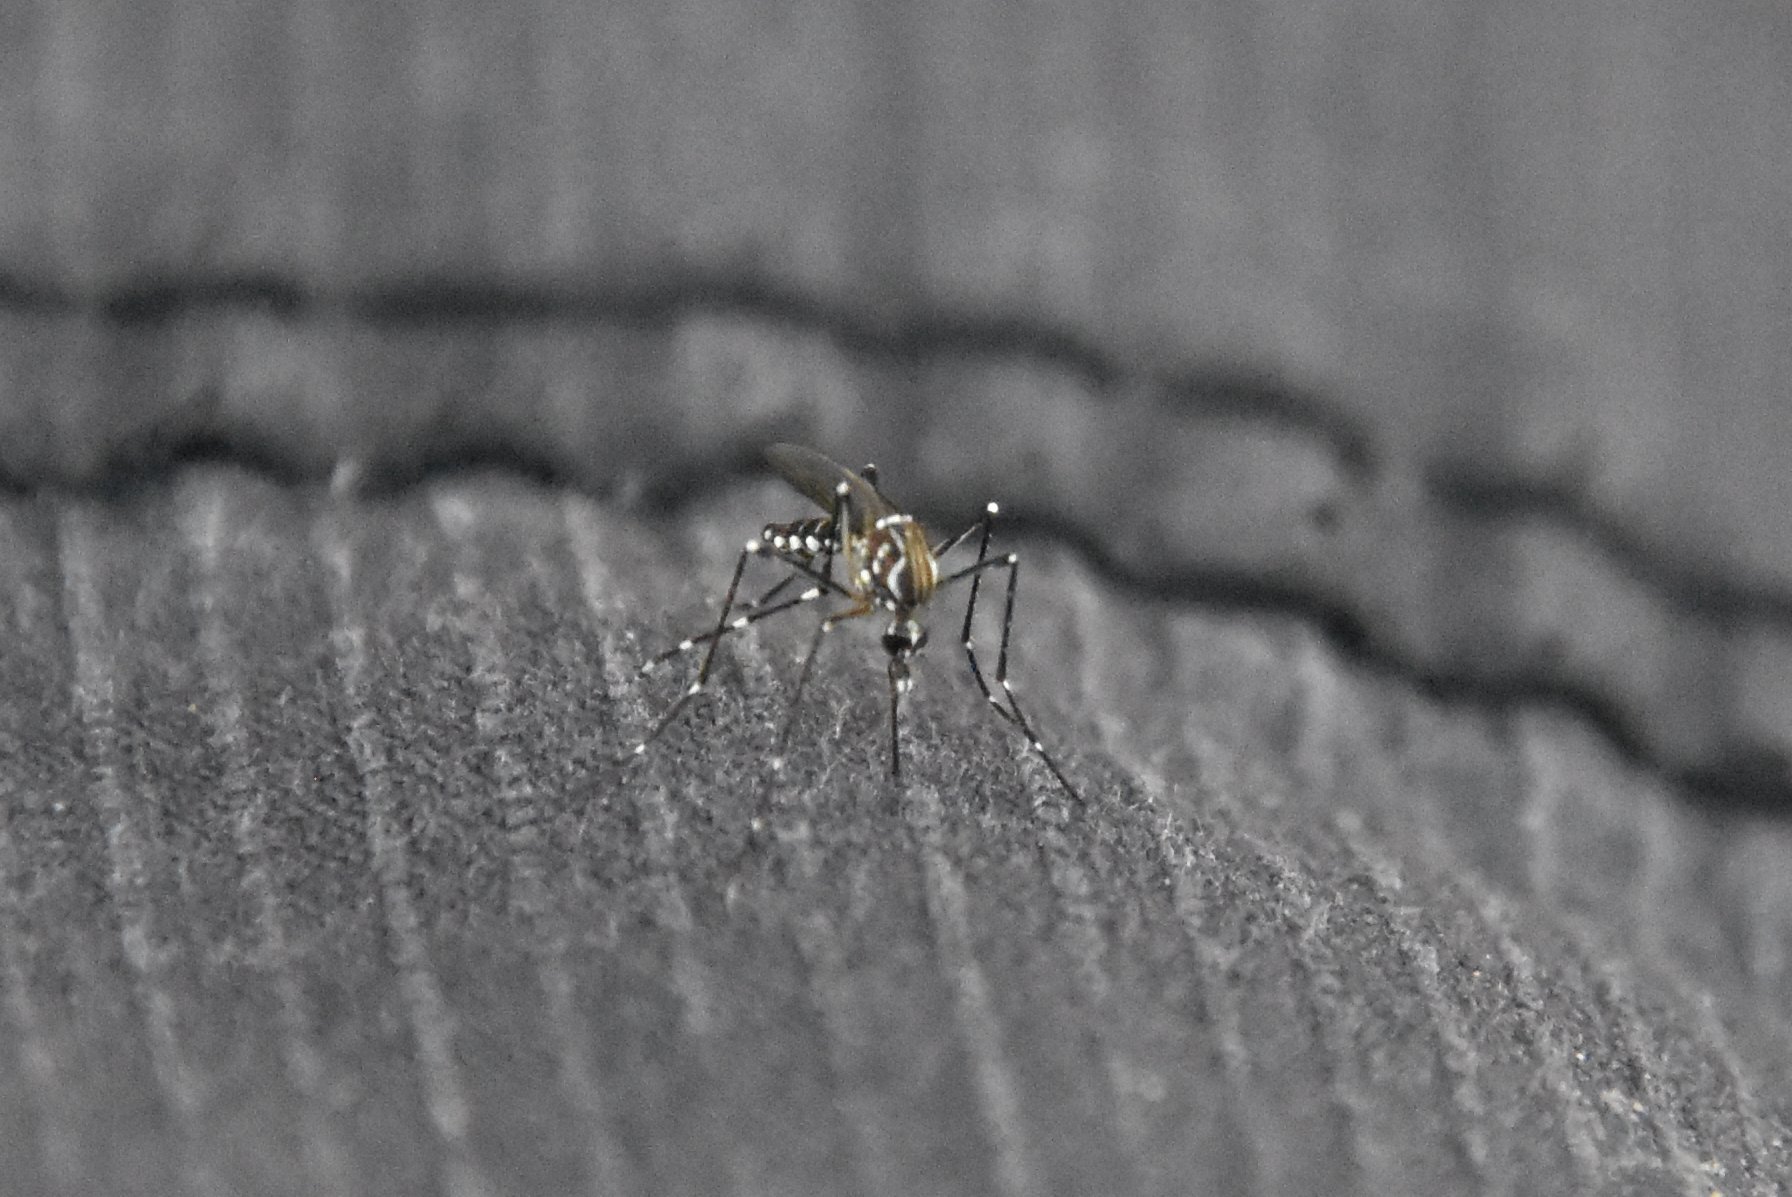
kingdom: Animalia
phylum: Arthropoda
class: Insecta
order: Diptera
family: Culicidae
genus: Aedes
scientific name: Aedes aegypti
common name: Yellow fever mosquito
